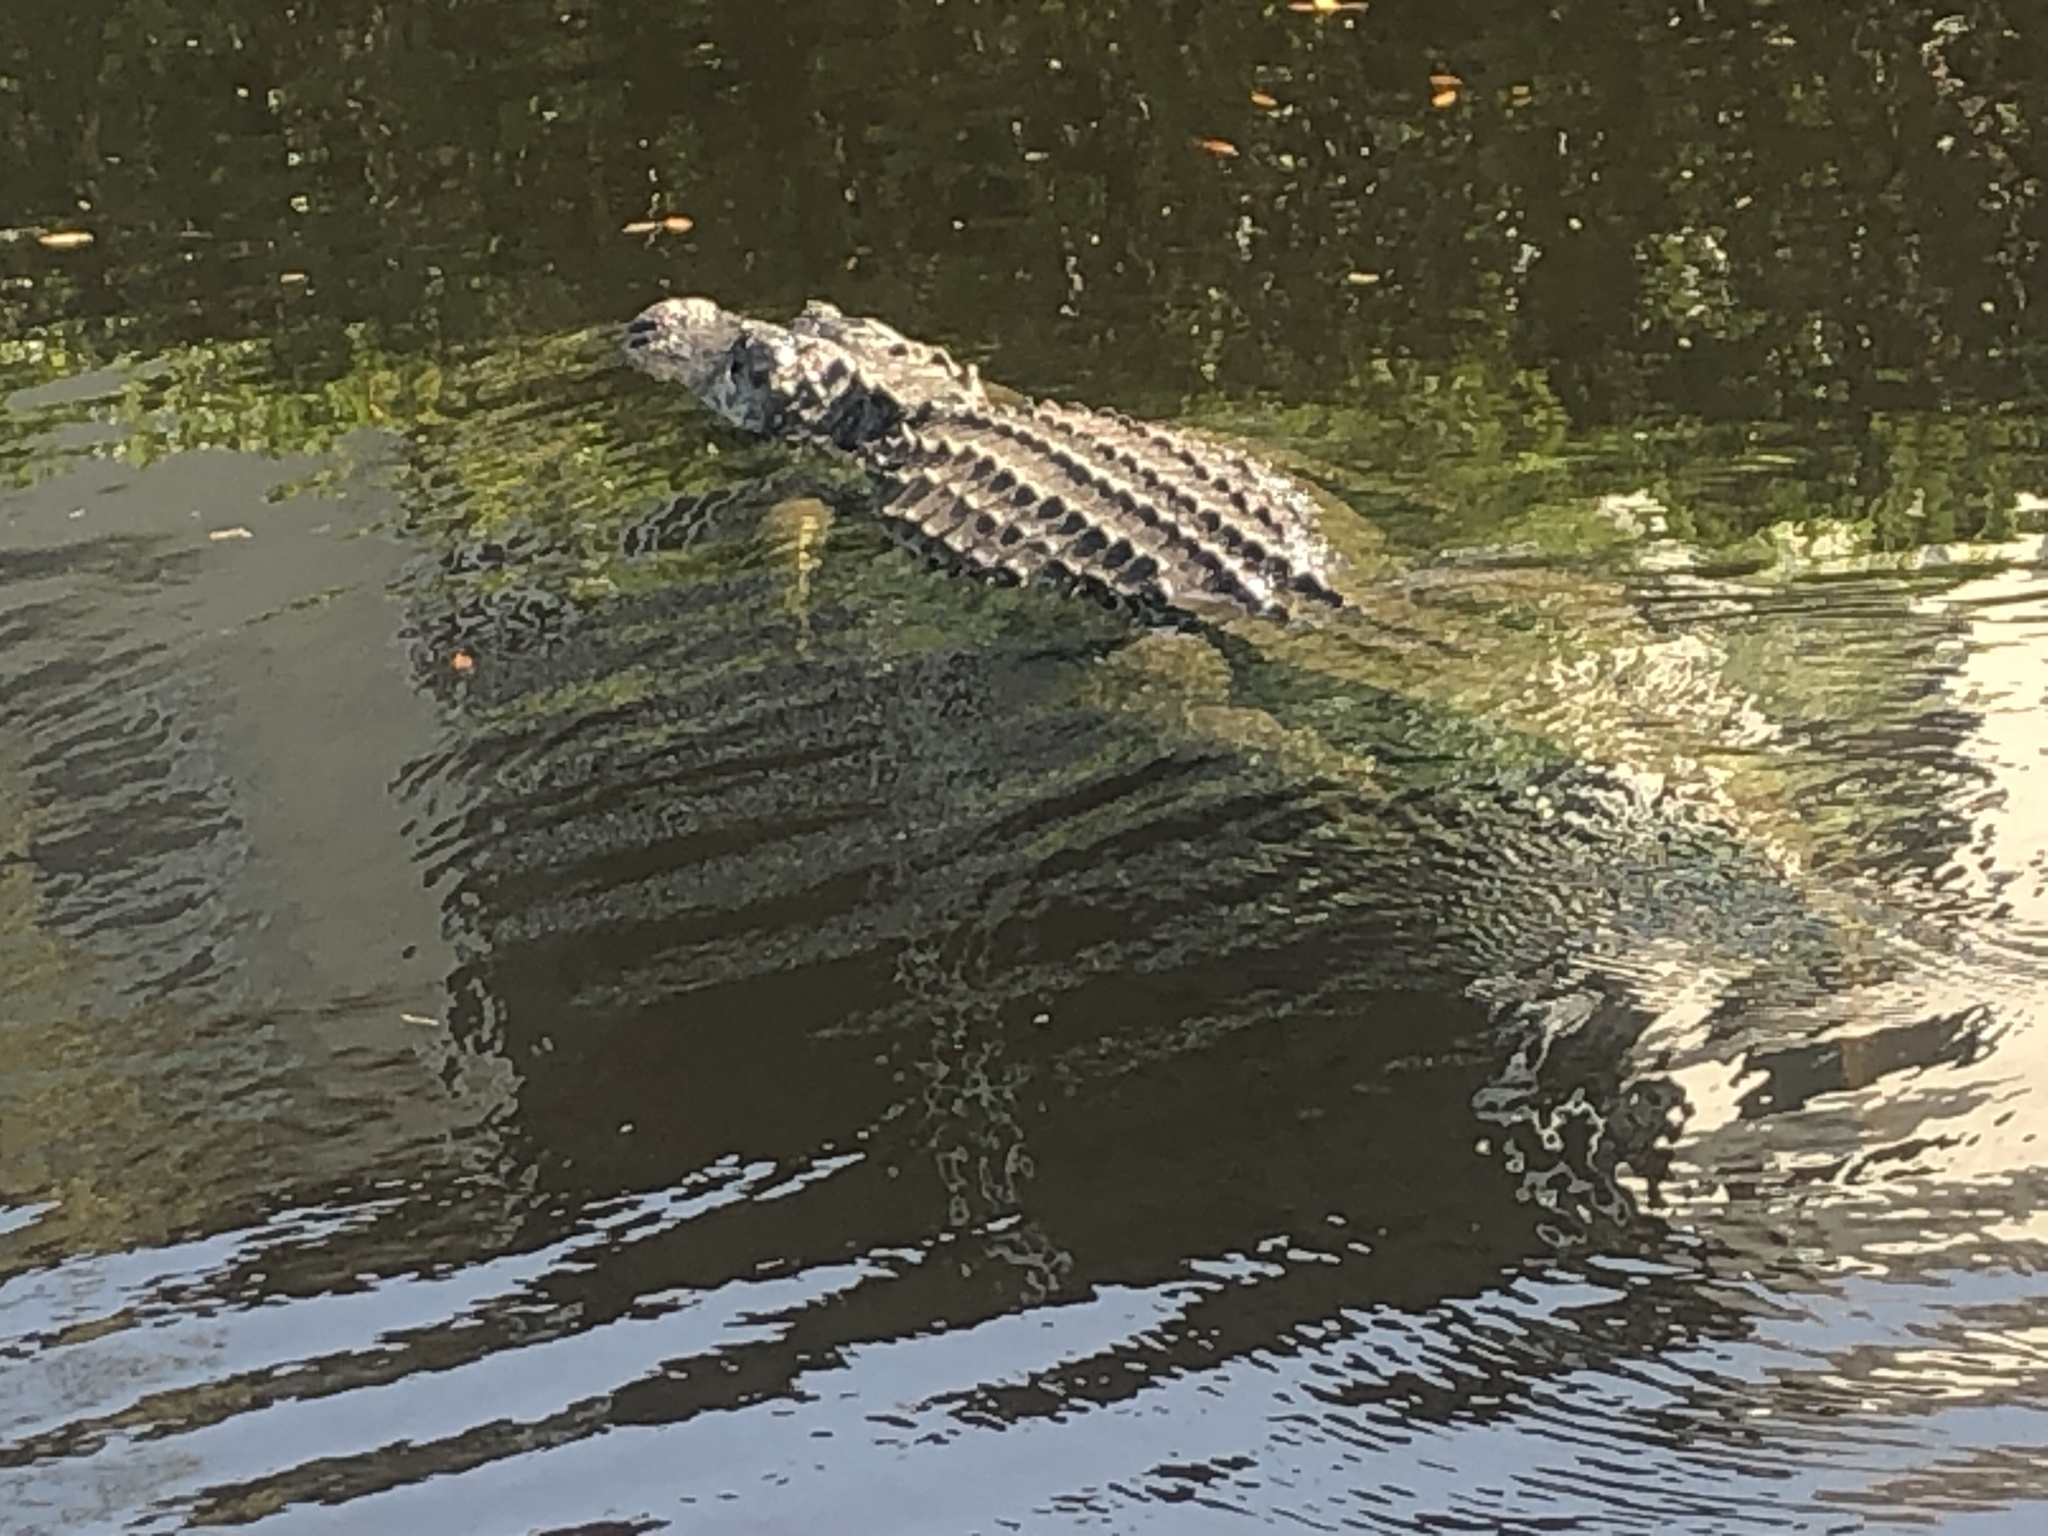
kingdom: Animalia
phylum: Chordata
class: Crocodylia
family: Alligatoridae
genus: Alligator
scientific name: Alligator mississippiensis
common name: American alligator
